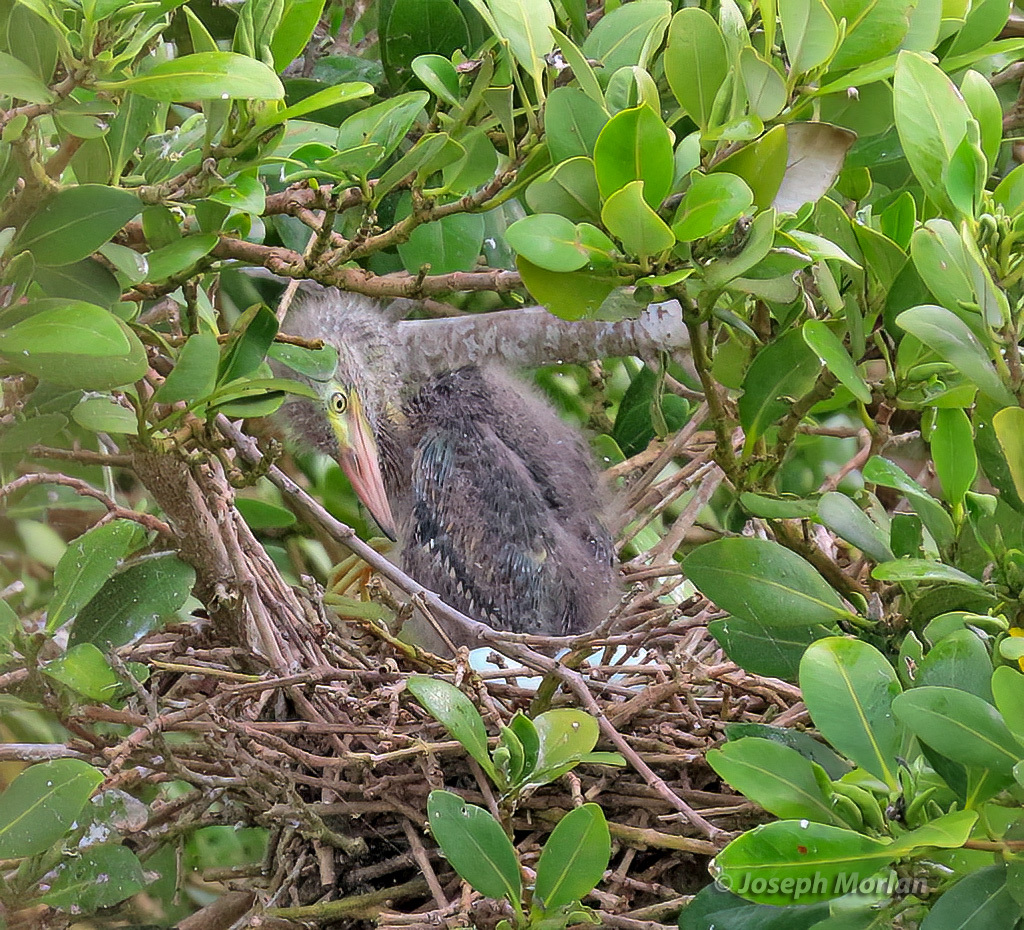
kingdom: Animalia
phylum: Chordata
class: Aves
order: Pelecaniformes
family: Ardeidae
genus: Butorides
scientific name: Butorides virescens
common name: Green heron
